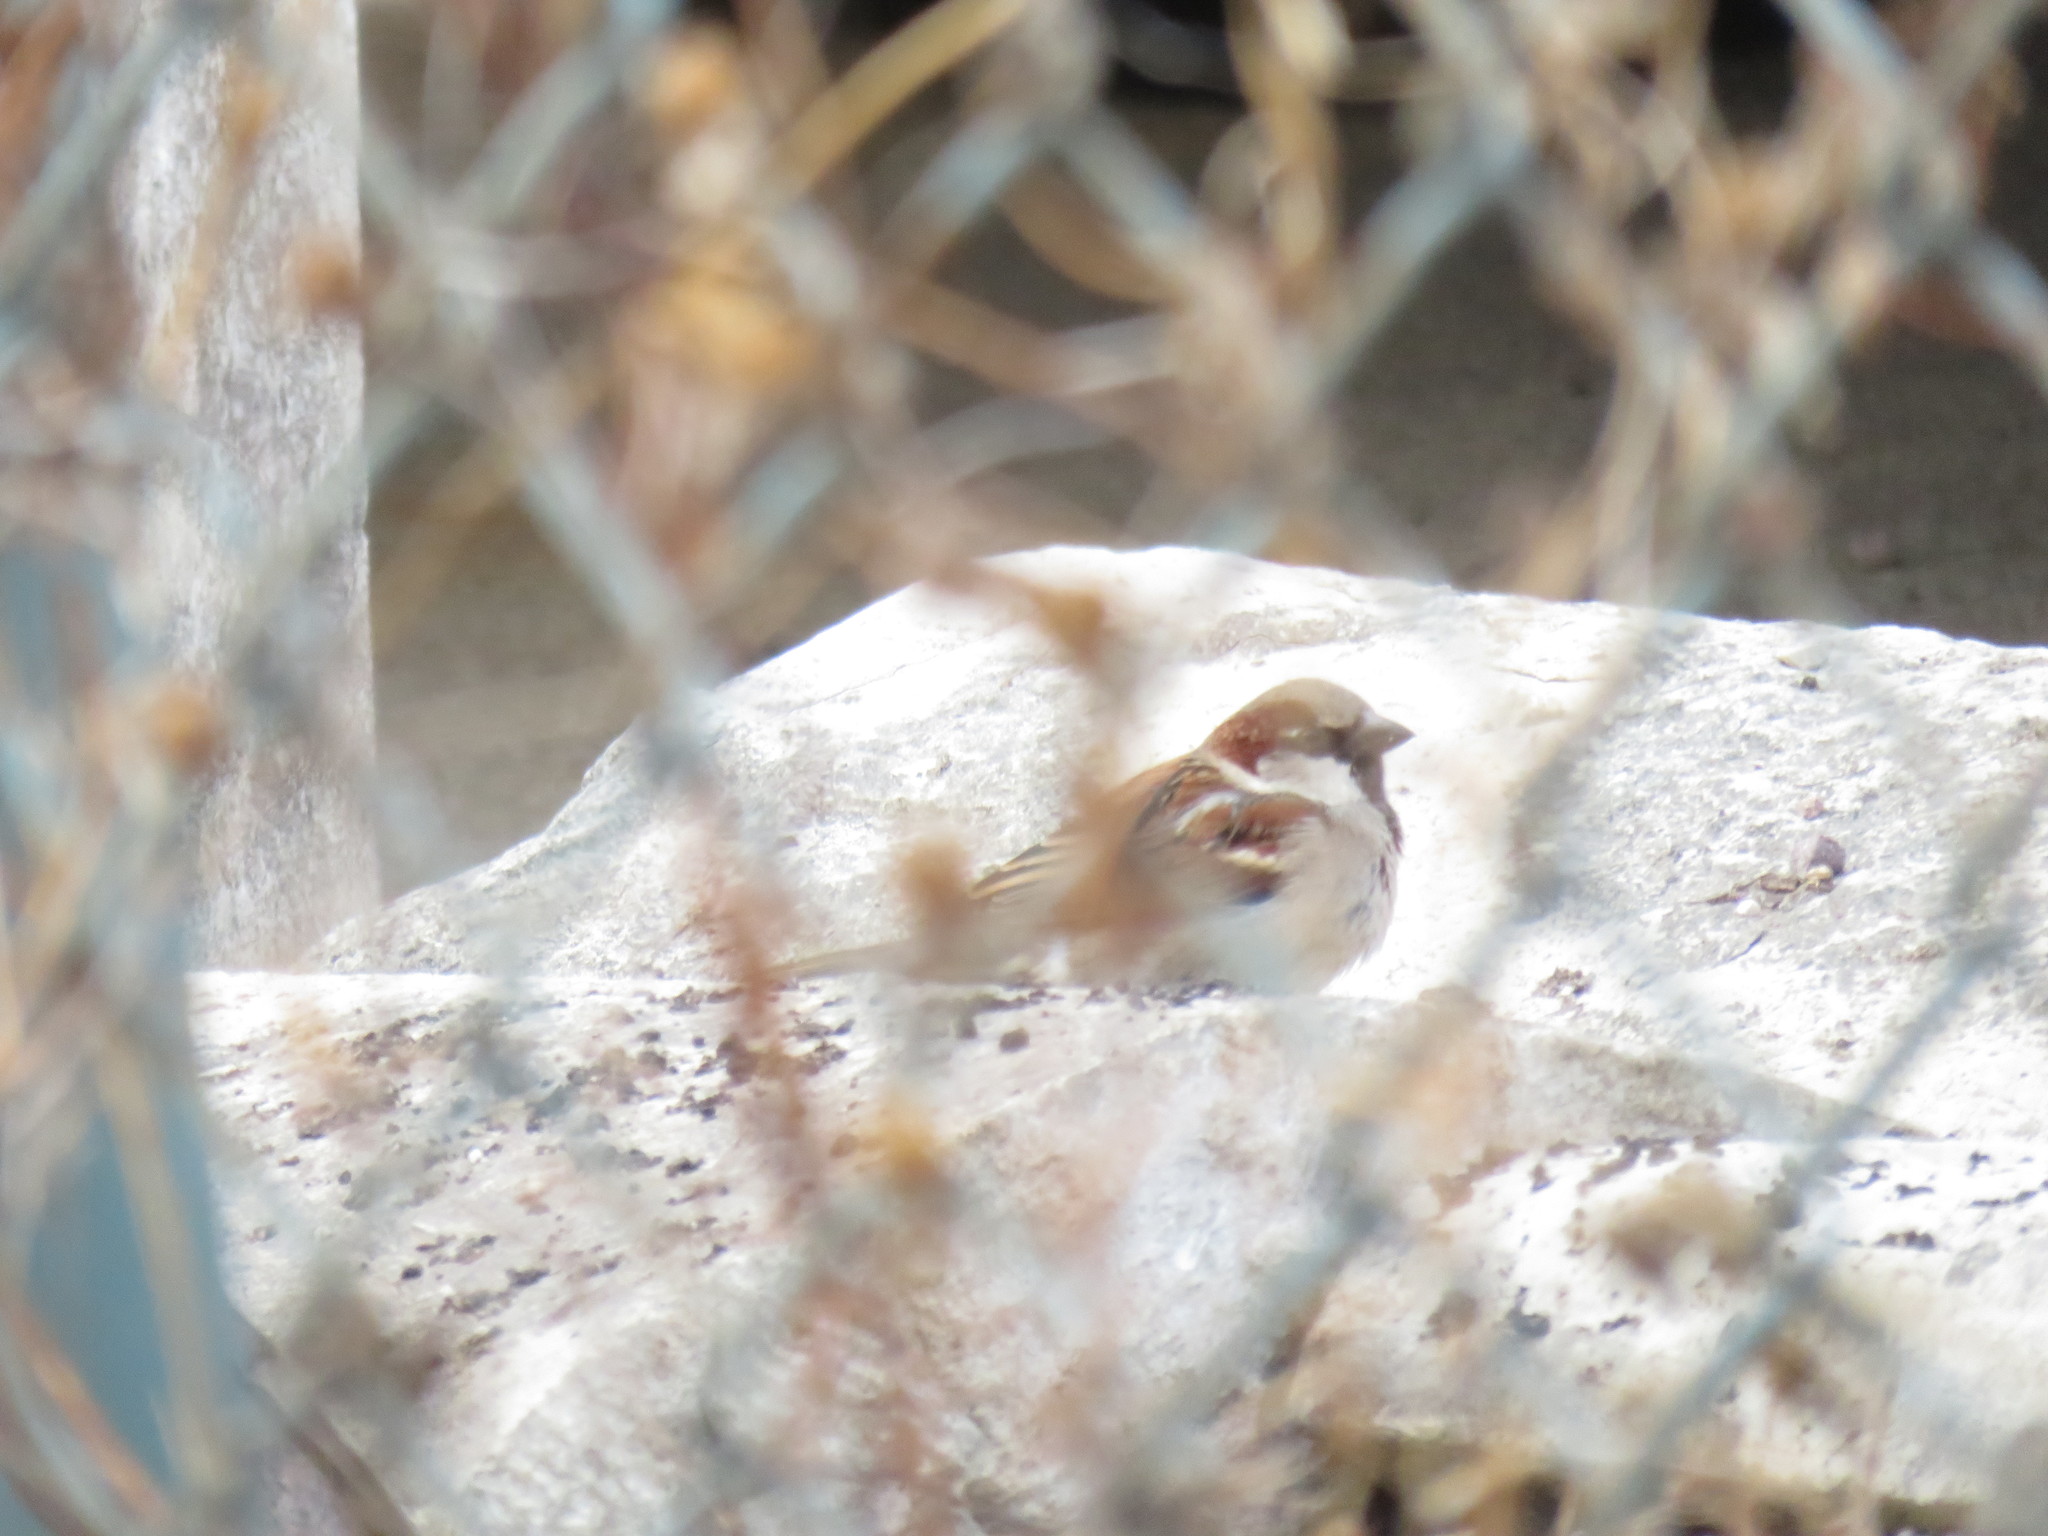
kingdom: Animalia
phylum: Chordata
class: Aves
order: Passeriformes
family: Passeridae
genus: Passer
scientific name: Passer domesticus
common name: House sparrow
